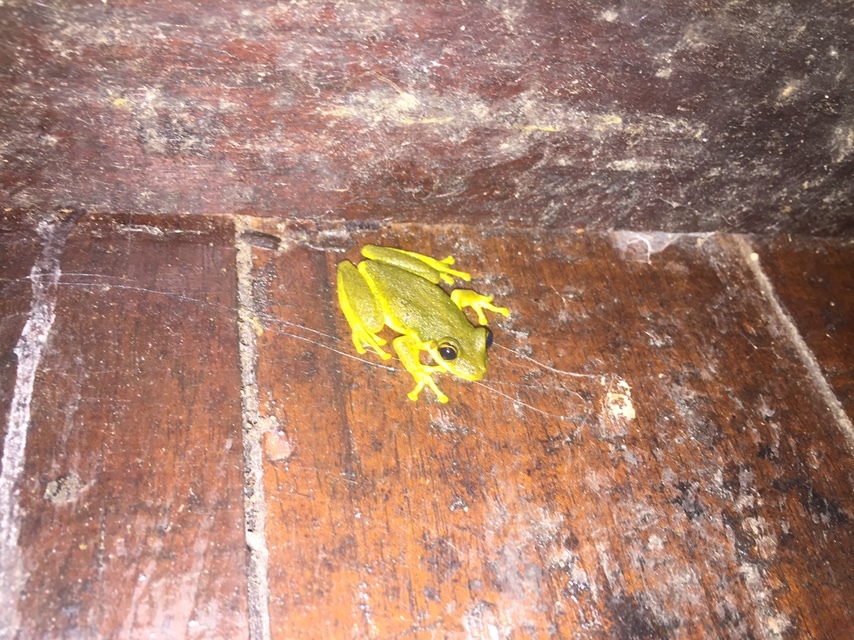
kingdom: Animalia
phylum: Chordata
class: Amphibia
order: Anura
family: Hylidae
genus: Scinax
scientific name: Scinax ruber
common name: Red snouted treefrog
